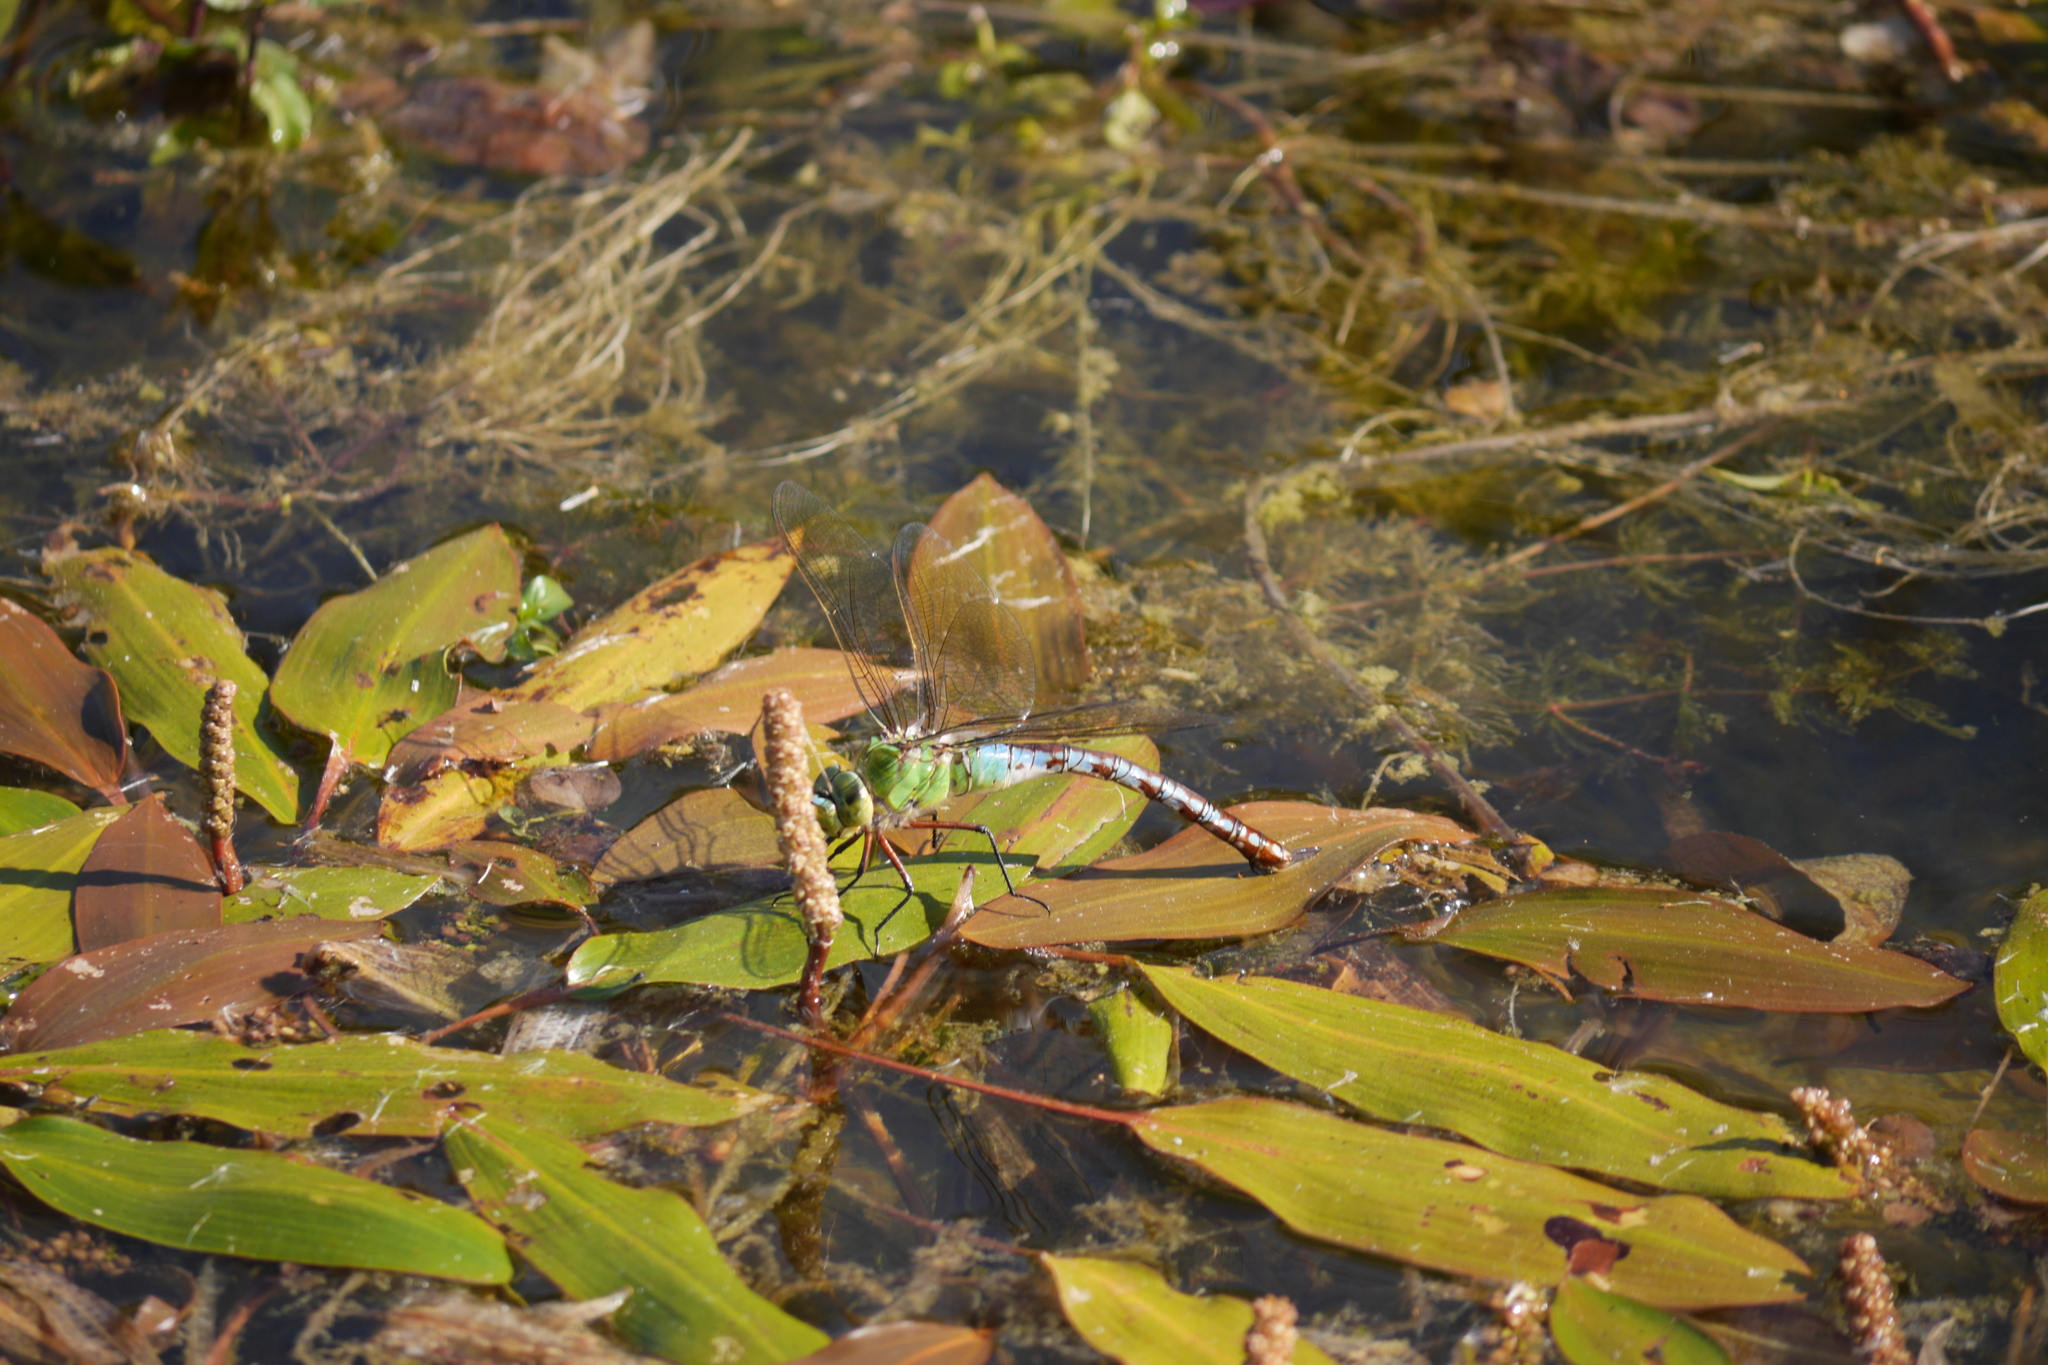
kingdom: Animalia
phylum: Arthropoda
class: Insecta
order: Odonata
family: Aeshnidae
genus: Anax
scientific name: Anax imperator
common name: Emperor dragonfly
